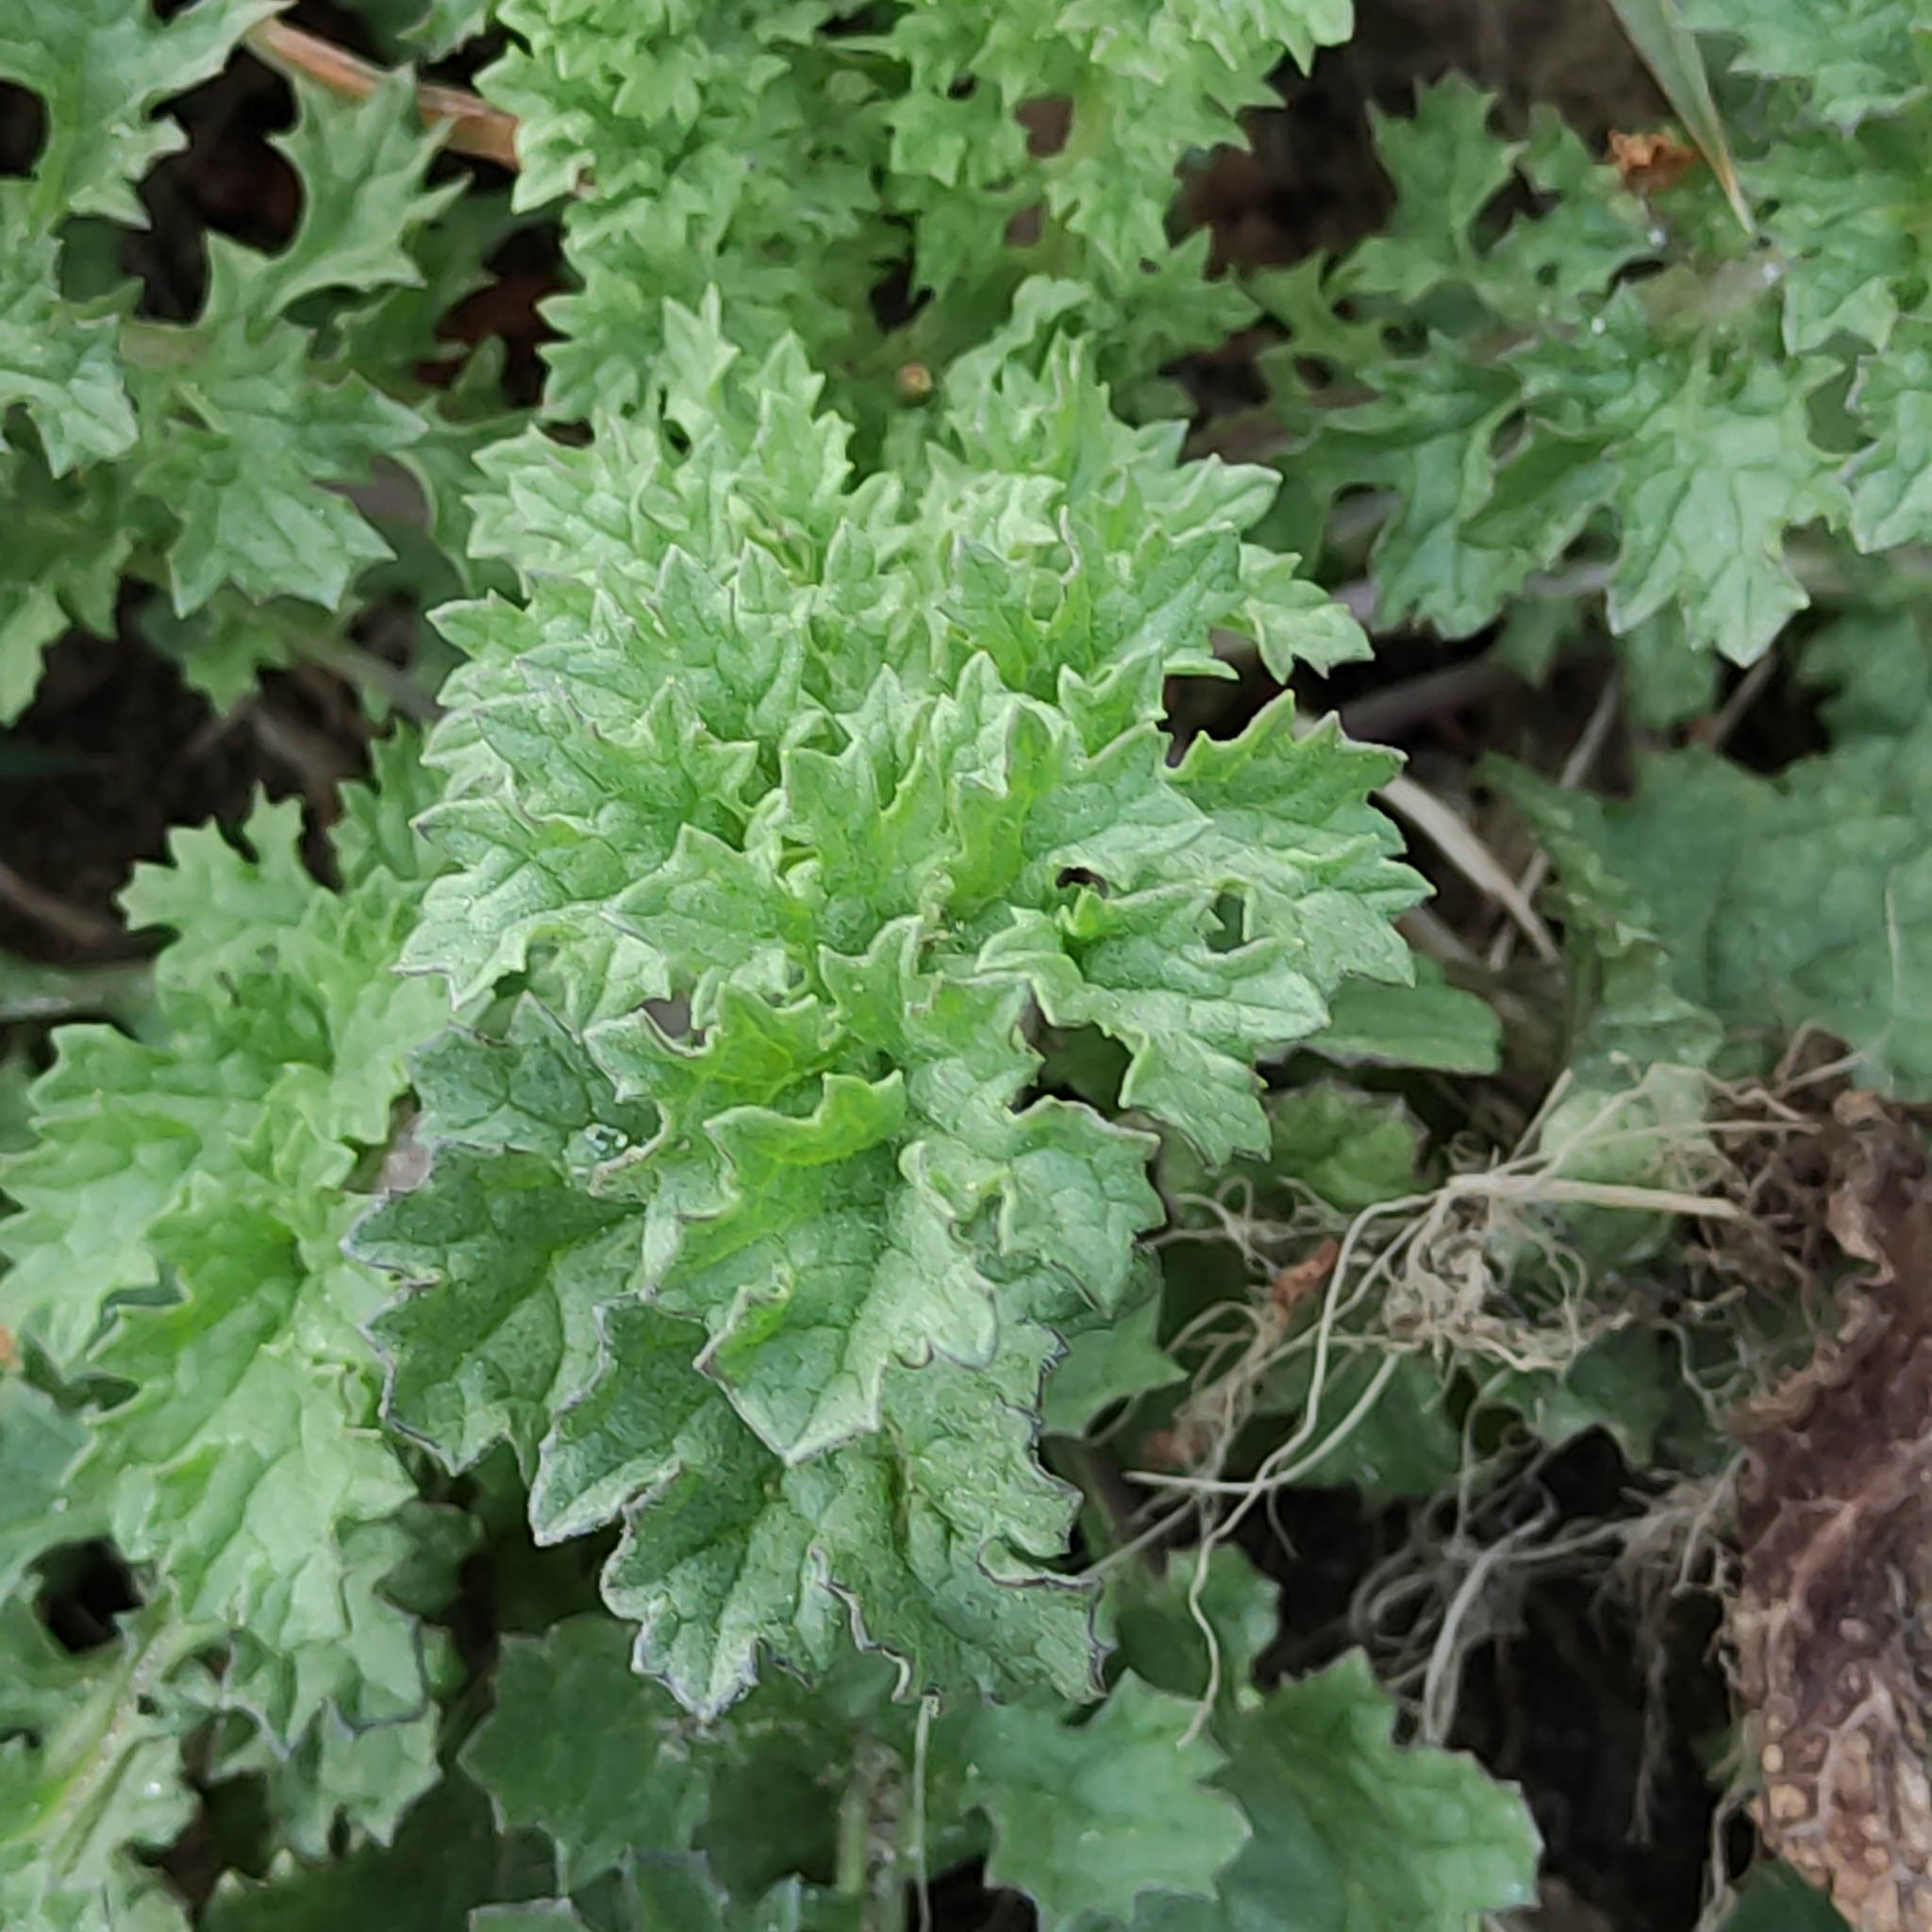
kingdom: Plantae
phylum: Tracheophyta
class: Magnoliopsida
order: Asterales
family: Asteraceae
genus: Jacobaea
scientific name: Jacobaea vulgaris
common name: Stinking willie
